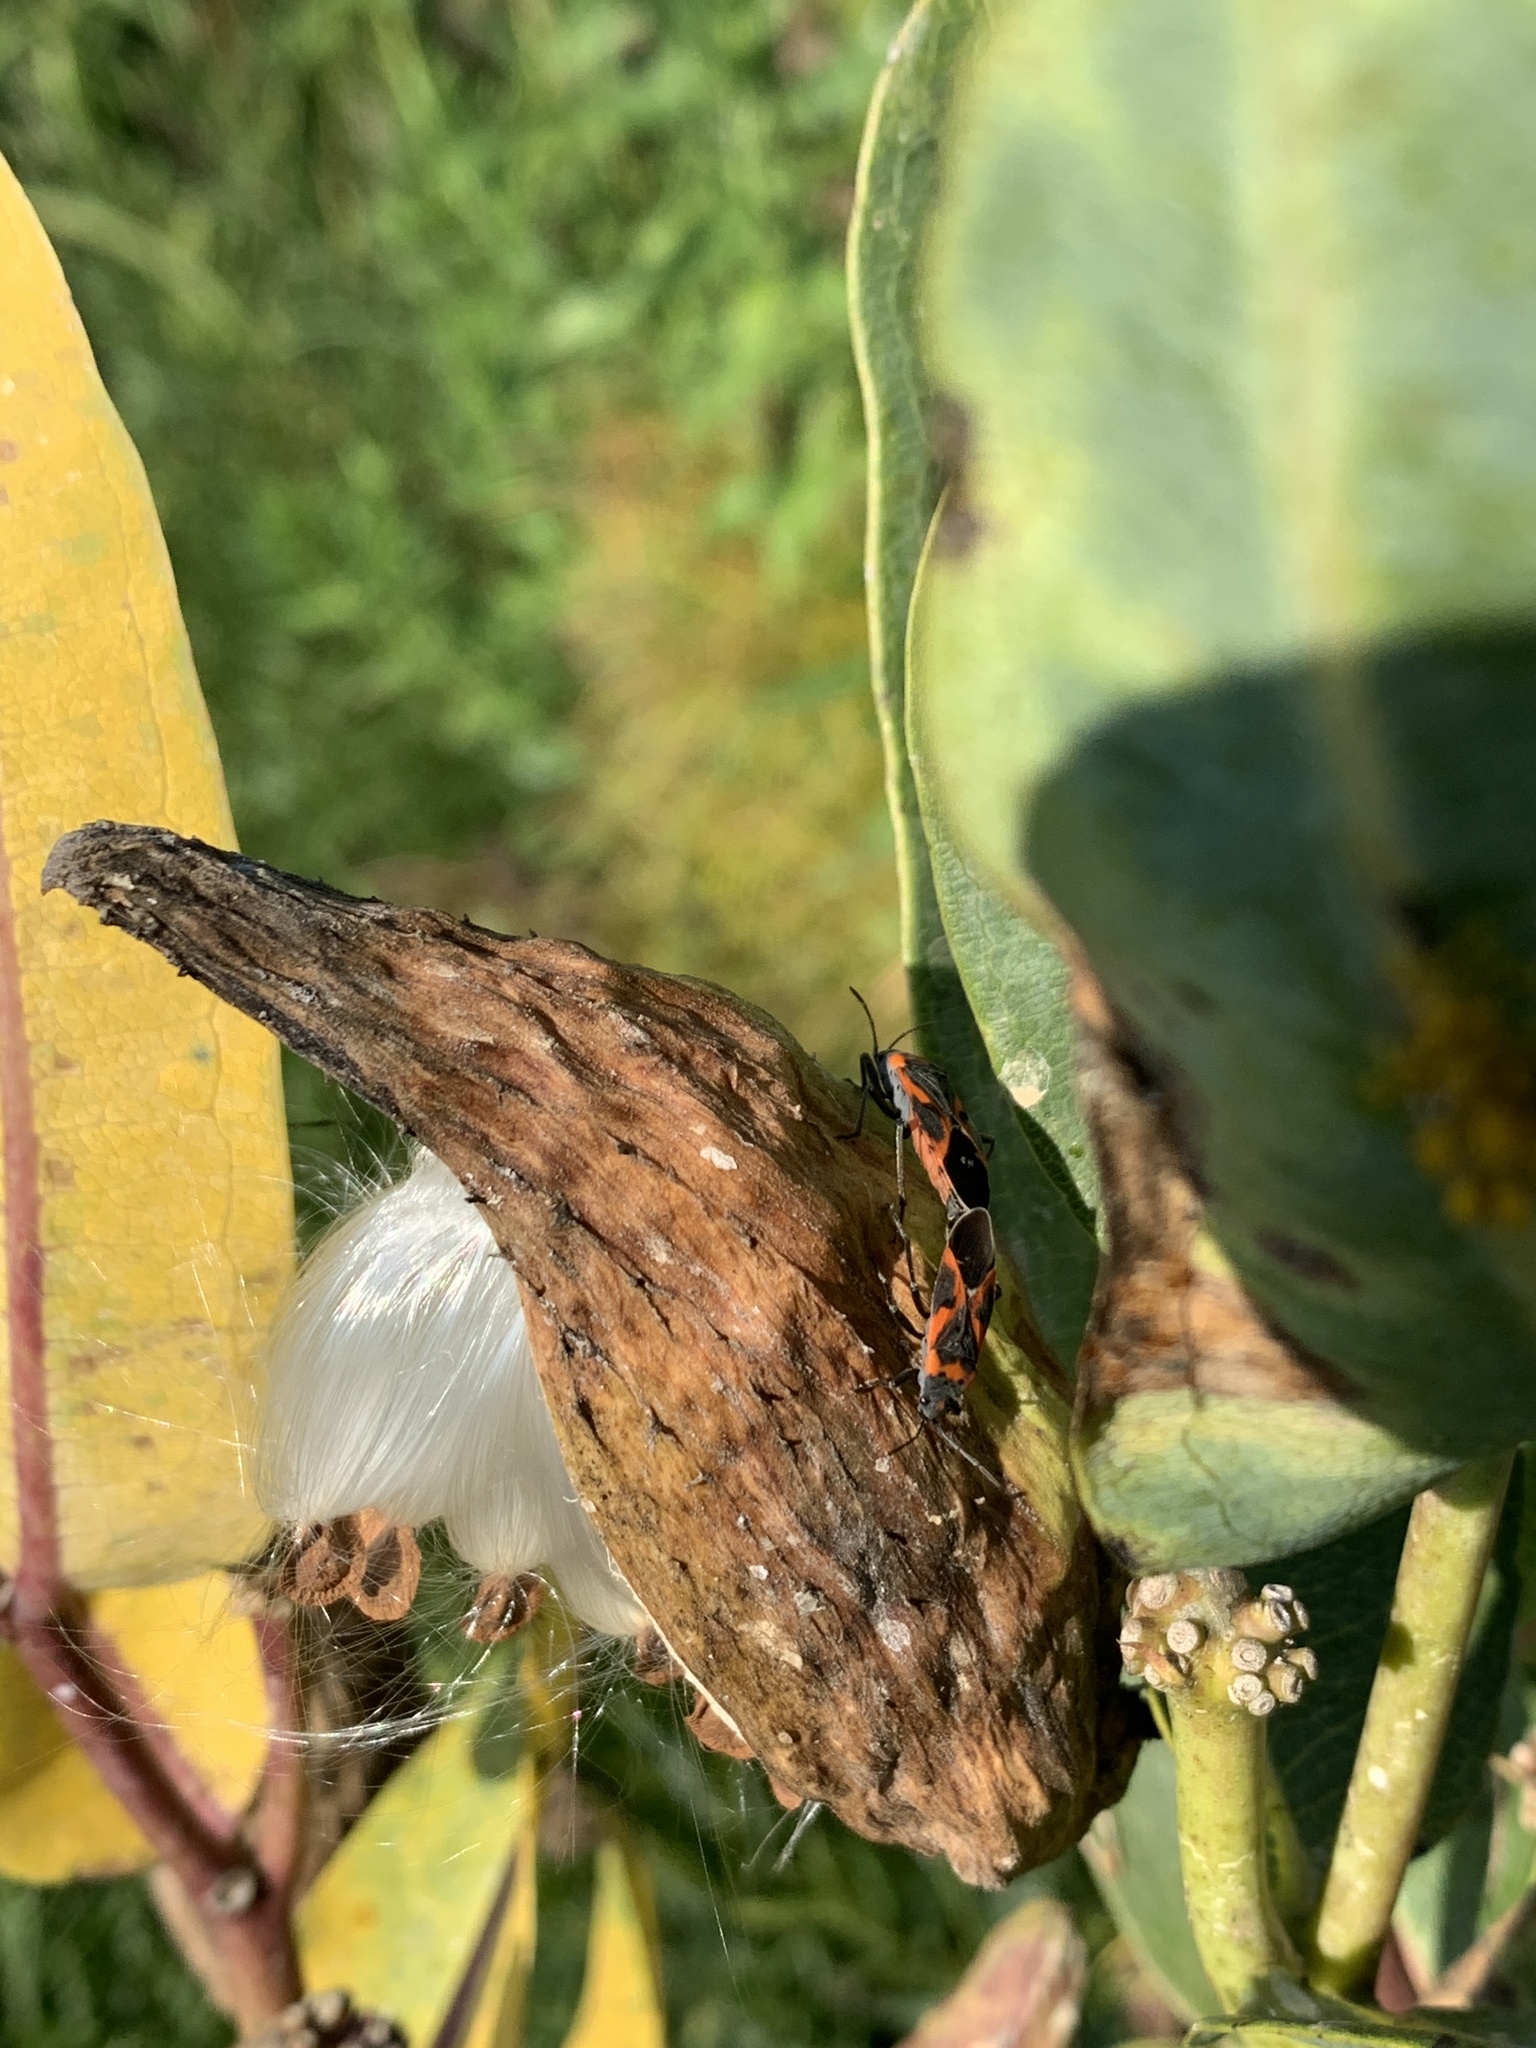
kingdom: Animalia
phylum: Arthropoda
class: Insecta
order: Hemiptera
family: Lygaeidae
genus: Lygaeus
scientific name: Lygaeus kalmii
